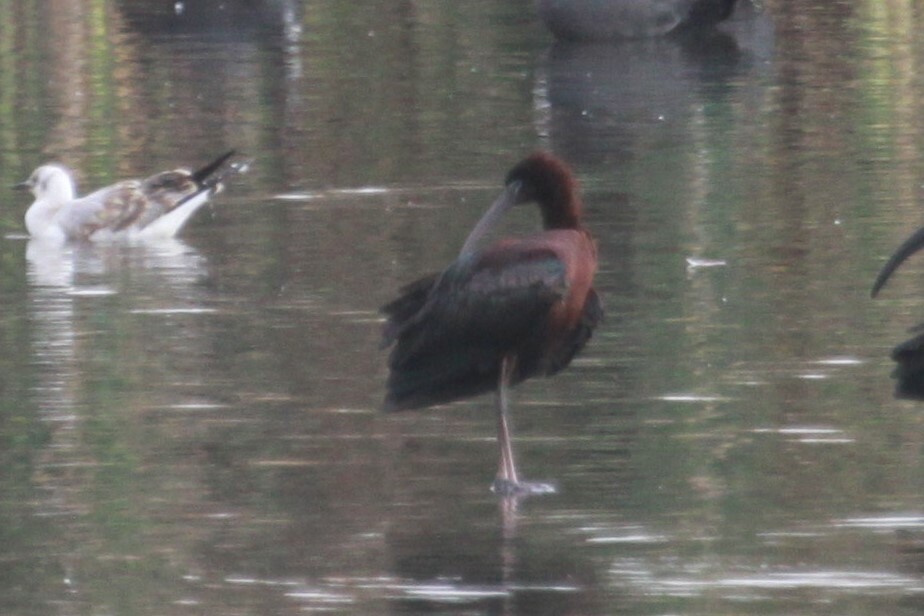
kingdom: Animalia
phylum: Chordata
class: Aves
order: Pelecaniformes
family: Threskiornithidae
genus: Plegadis
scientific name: Plegadis falcinellus
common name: Glossy ibis
